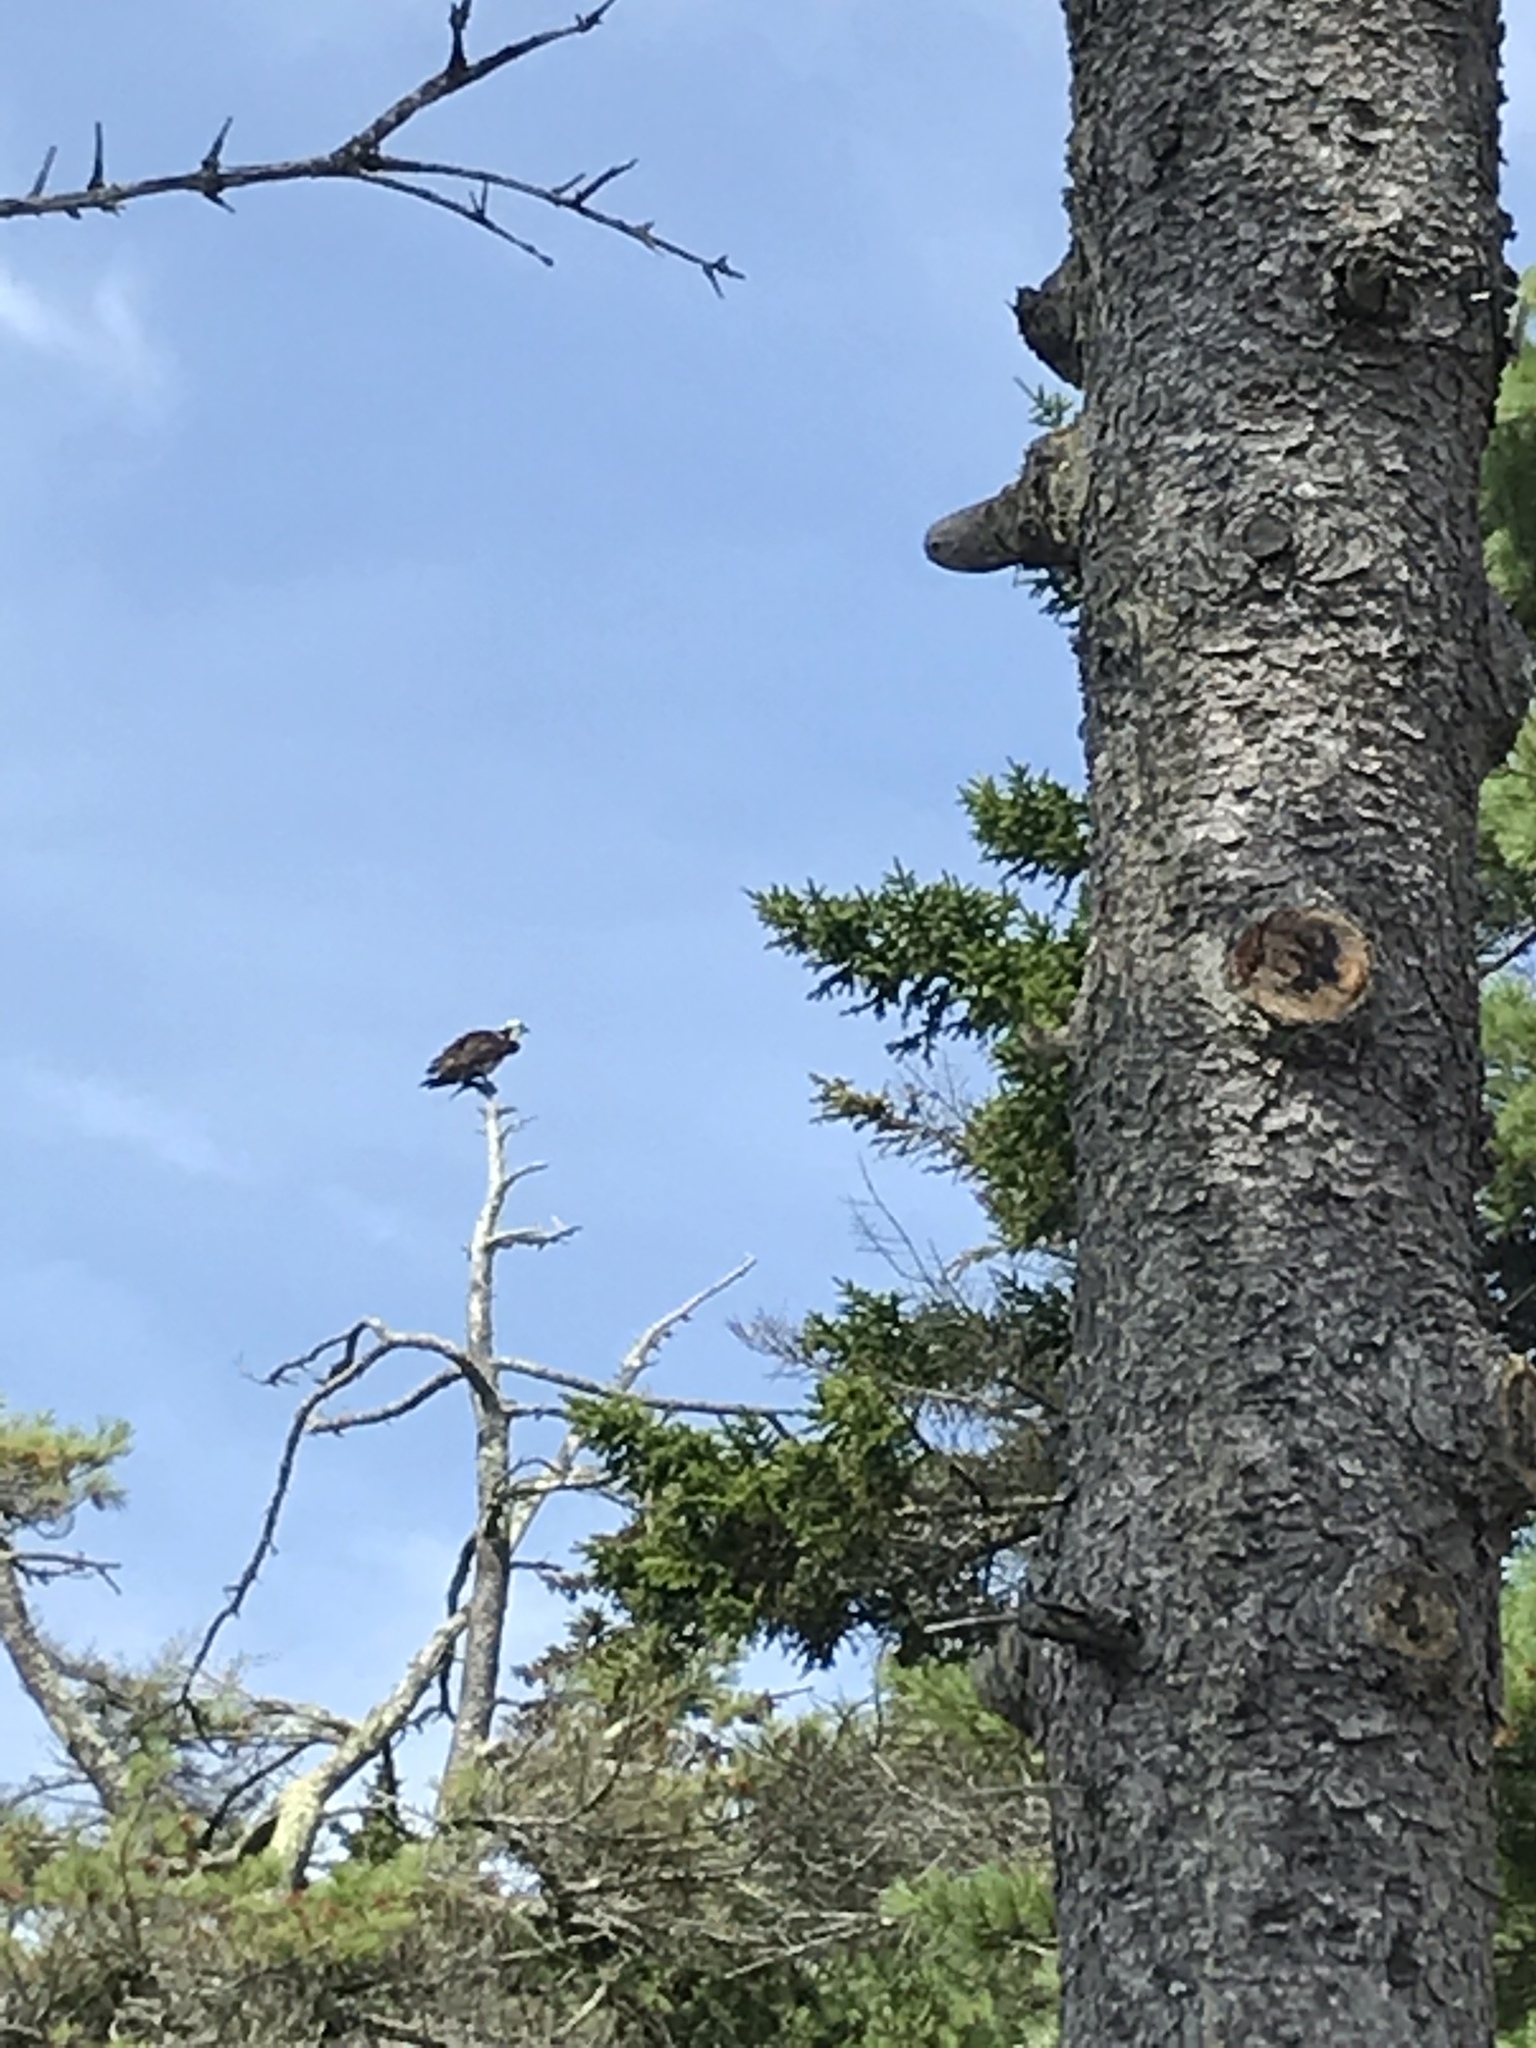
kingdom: Animalia
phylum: Chordata
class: Aves
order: Accipitriformes
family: Pandionidae
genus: Pandion
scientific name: Pandion haliaetus
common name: Osprey
